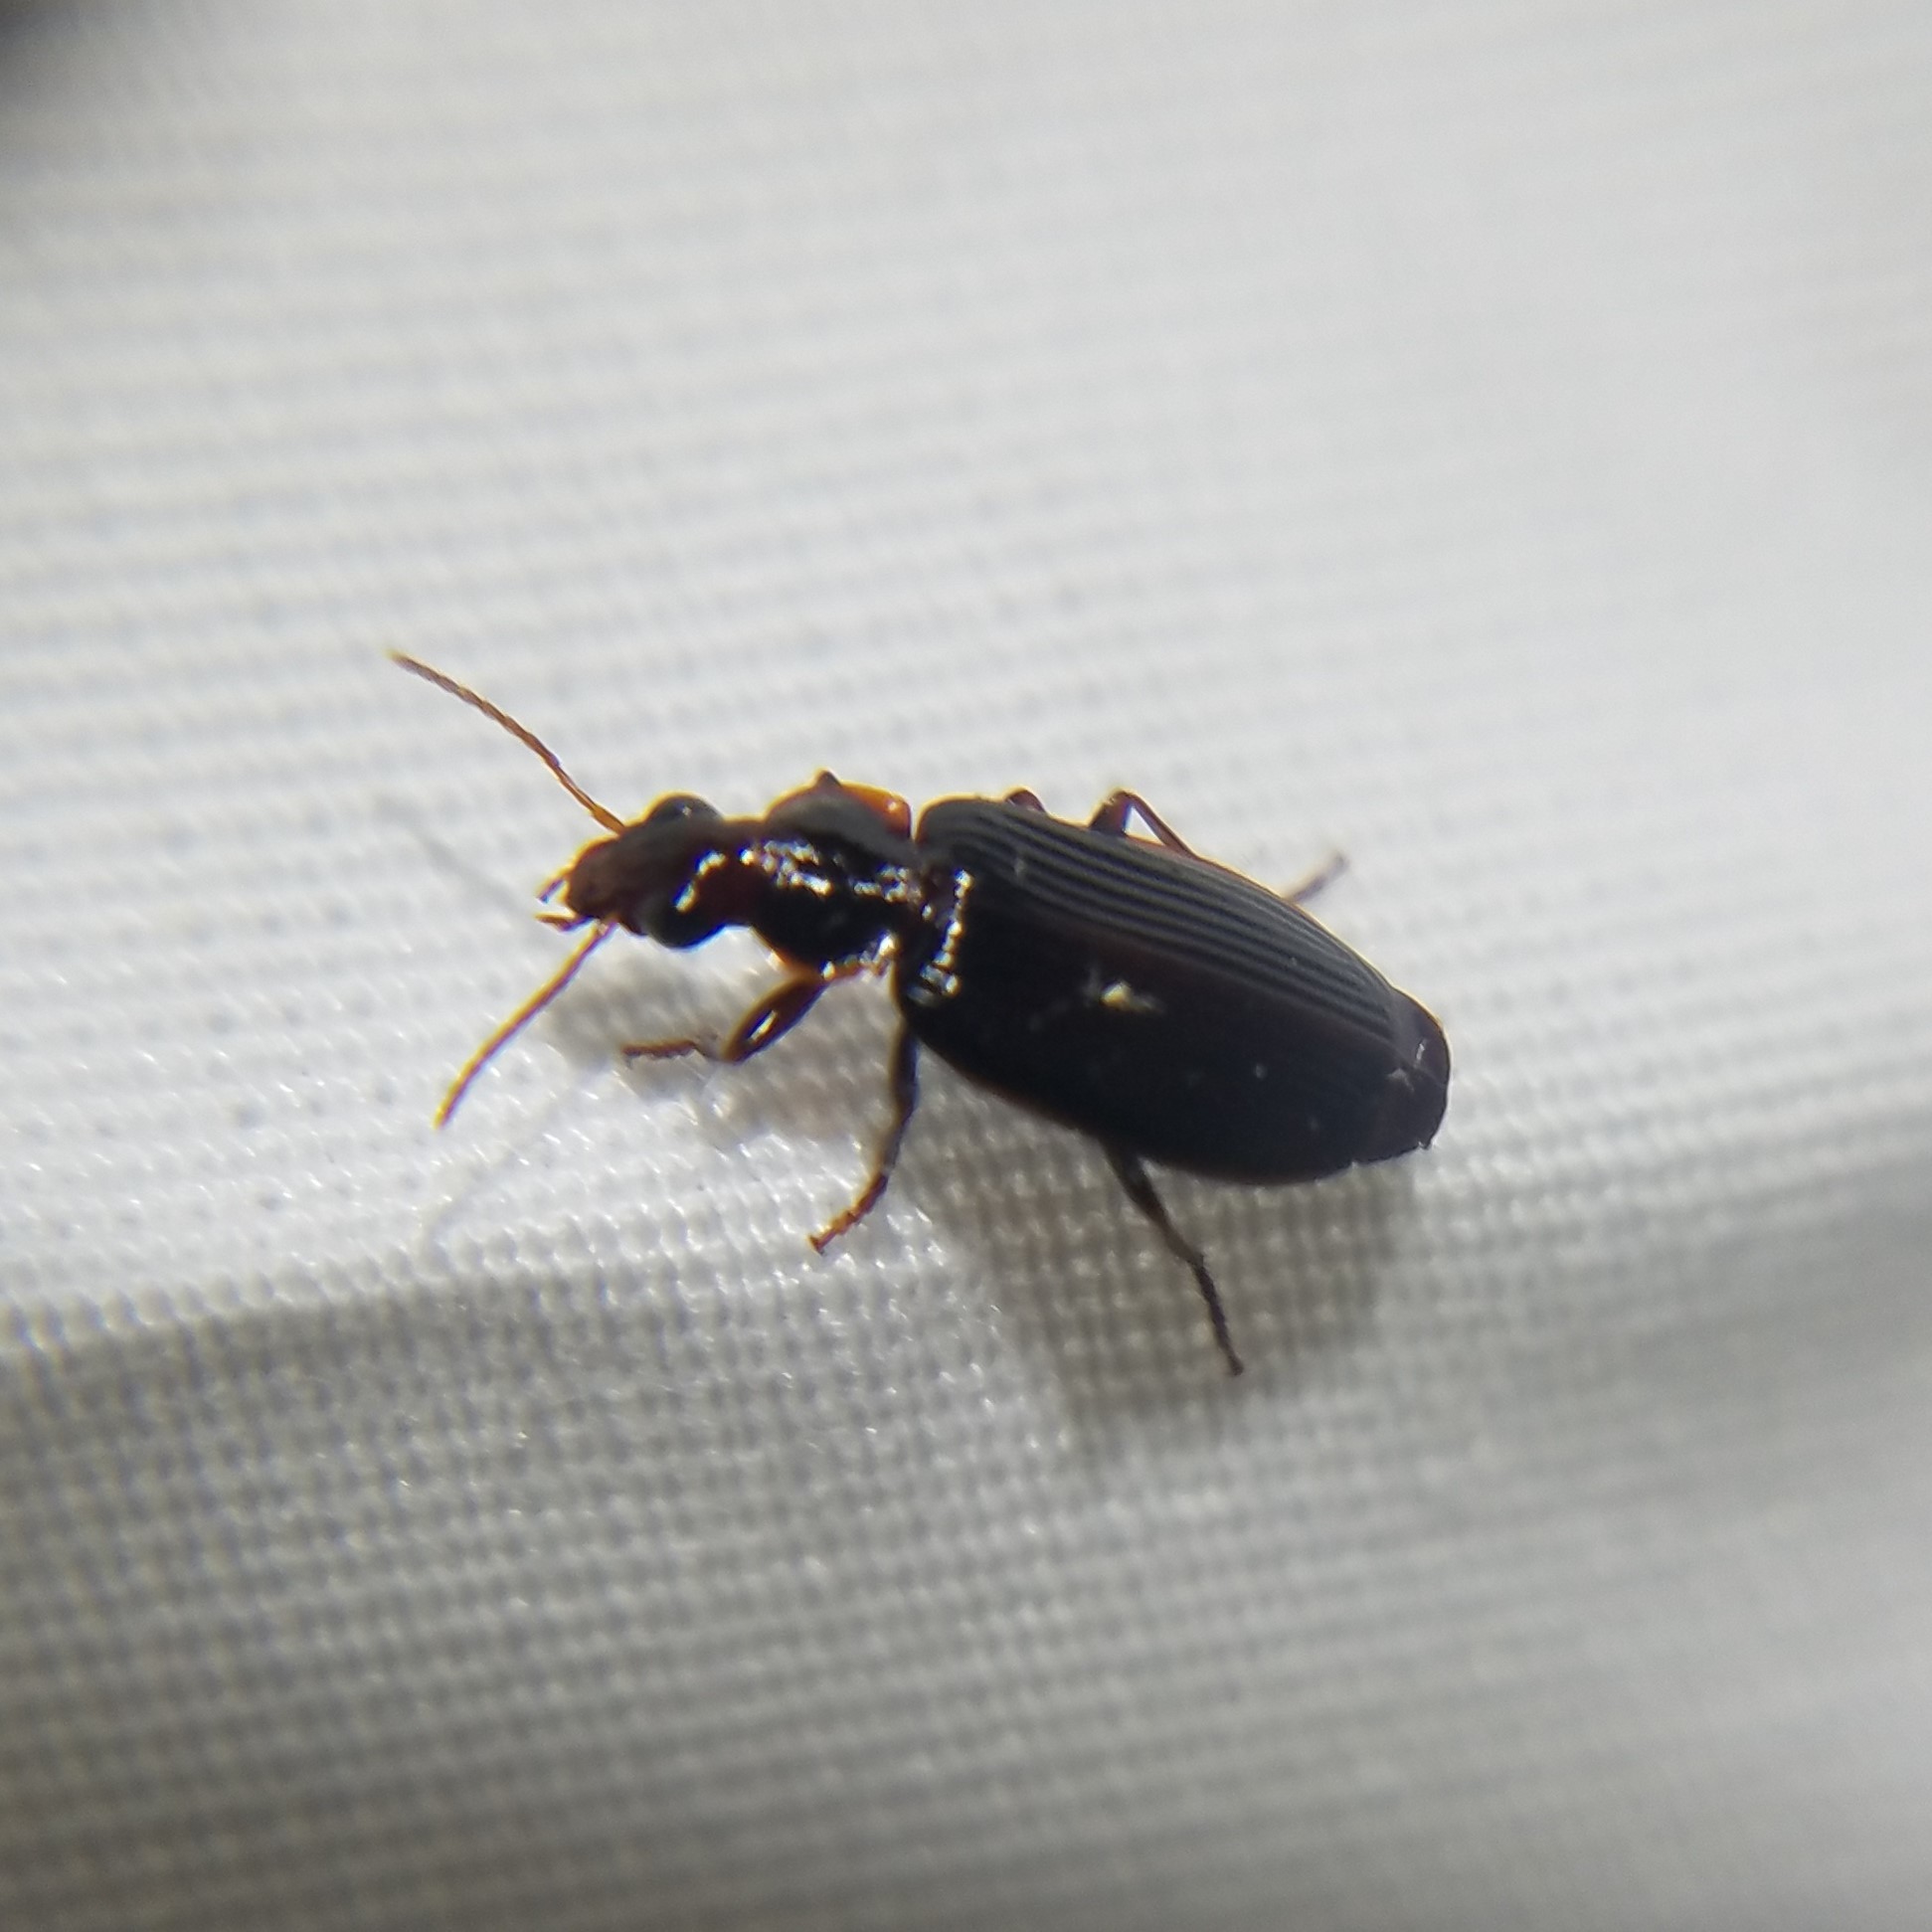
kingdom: Animalia
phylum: Arthropoda
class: Insecta
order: Coleoptera
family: Carabidae
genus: Plochionus
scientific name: Plochionus timidus
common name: Timid harp ground beetle
